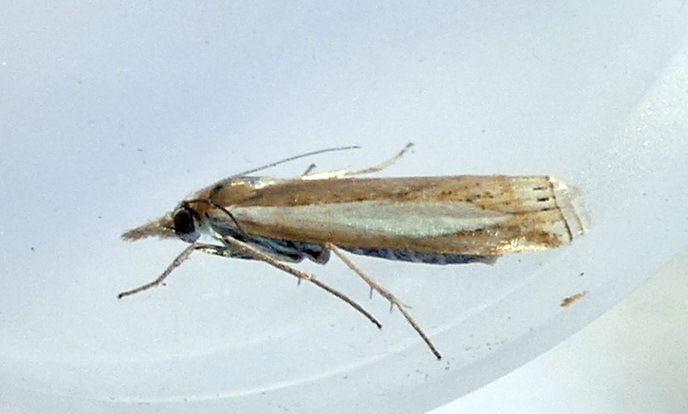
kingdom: Animalia
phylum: Arthropoda
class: Insecta
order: Lepidoptera
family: Crambidae
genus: Crambus
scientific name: Crambus praefectellus
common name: Common grass-veneer
